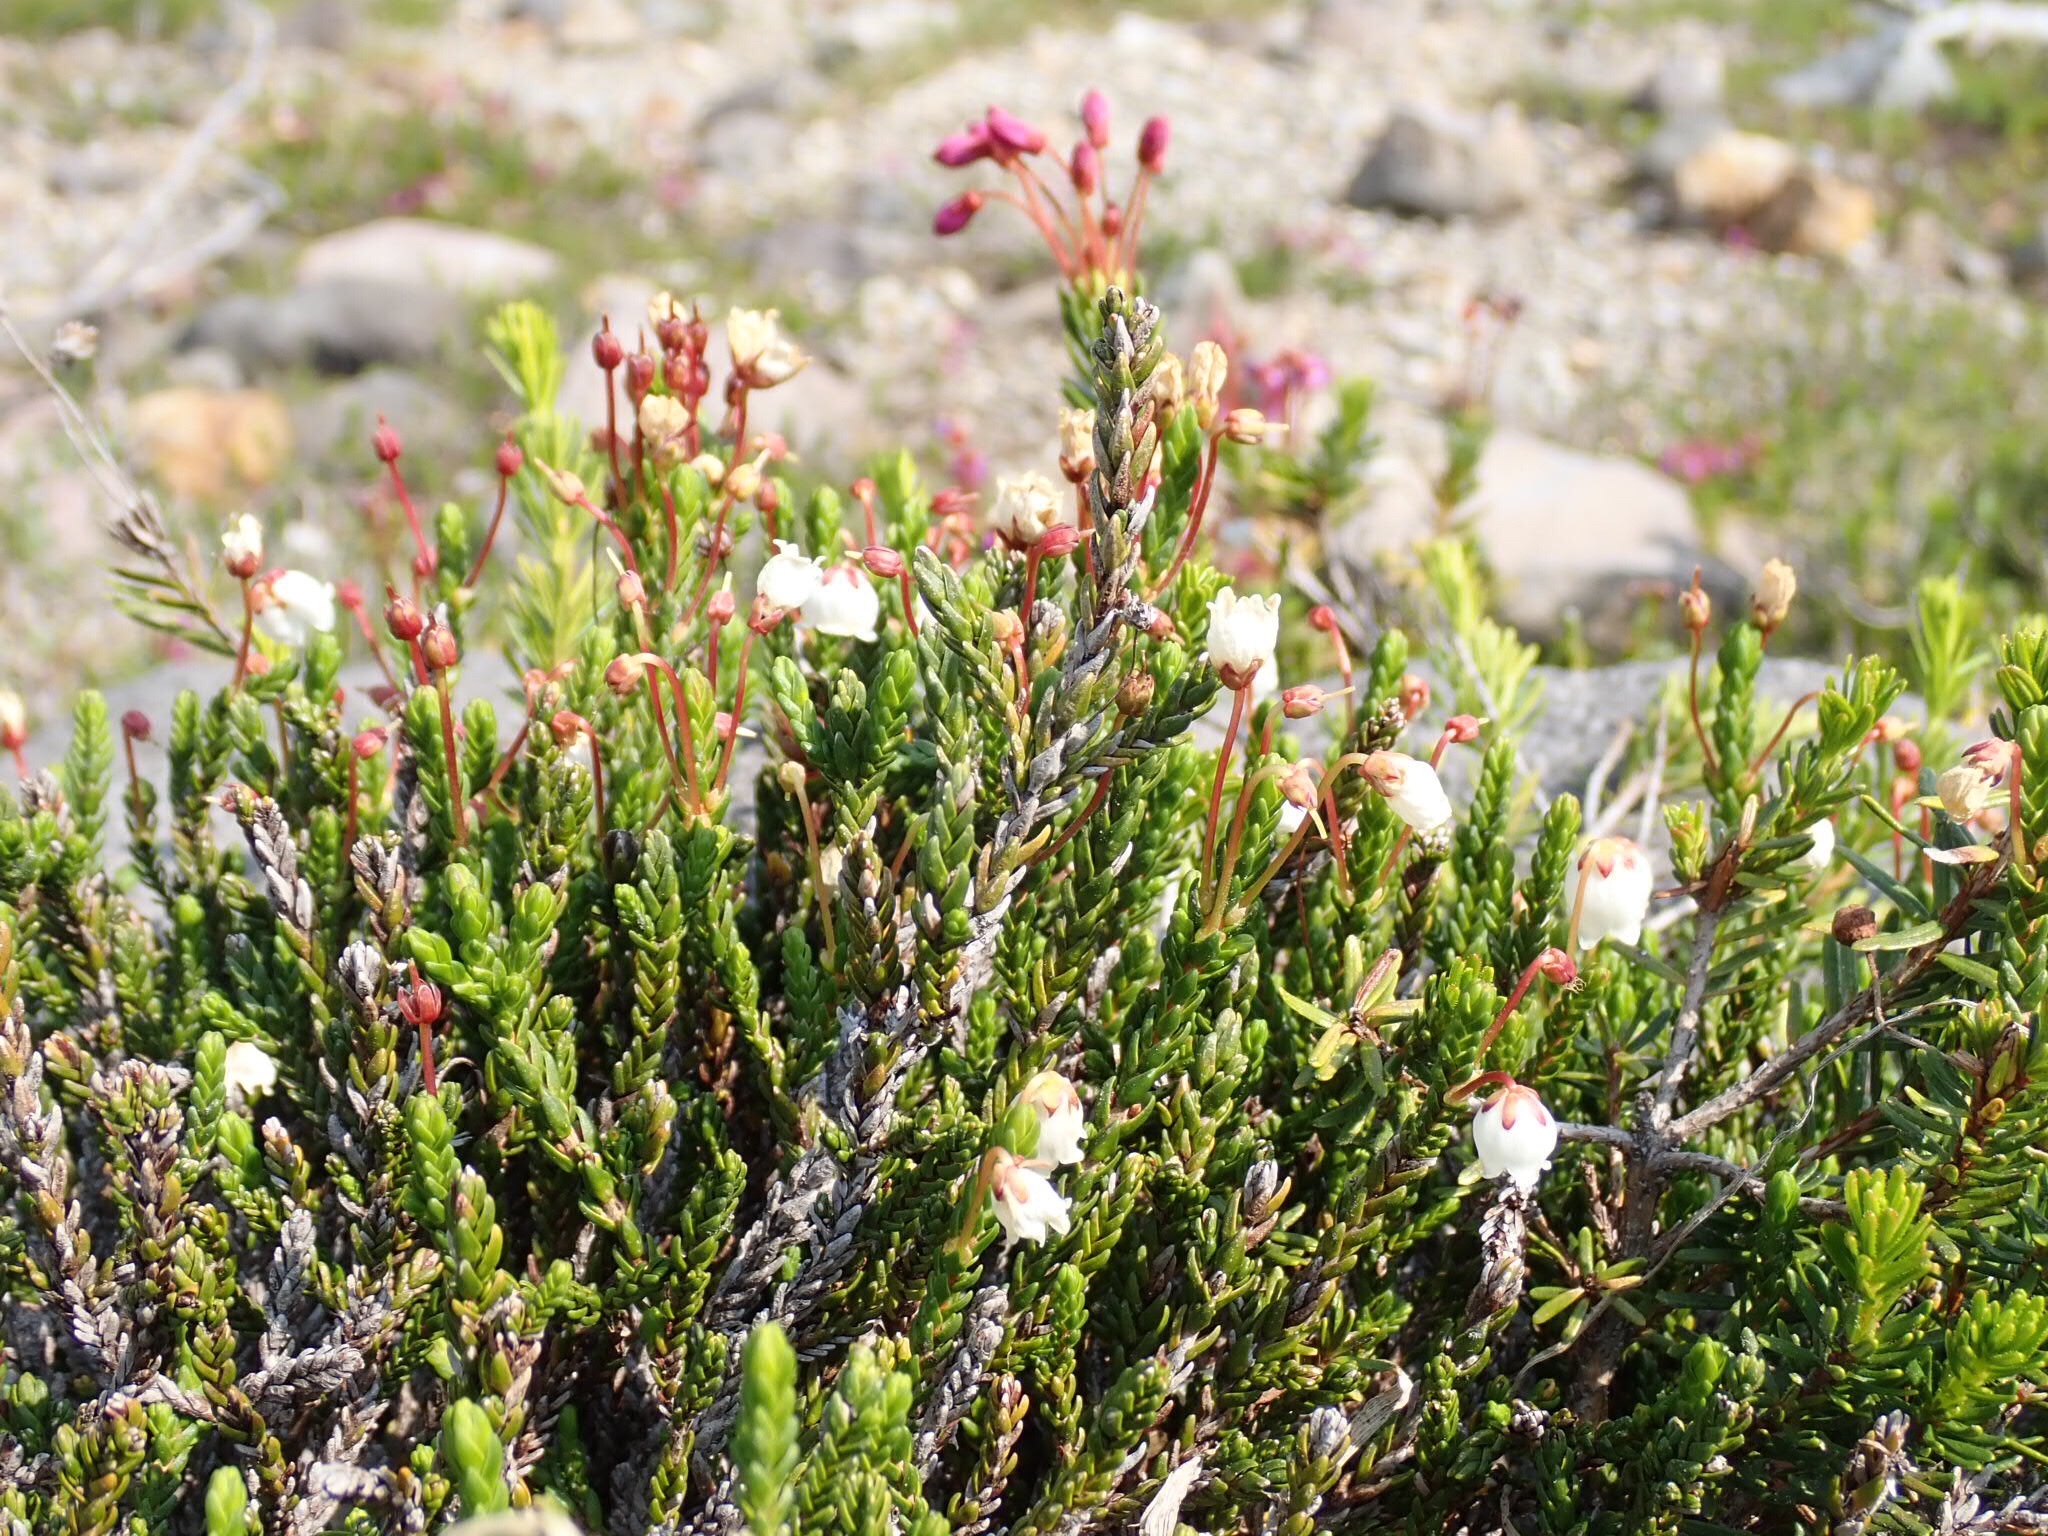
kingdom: Plantae
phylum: Tracheophyta
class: Magnoliopsida
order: Ericales
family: Ericaceae
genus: Cassiope
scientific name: Cassiope mertensiana
